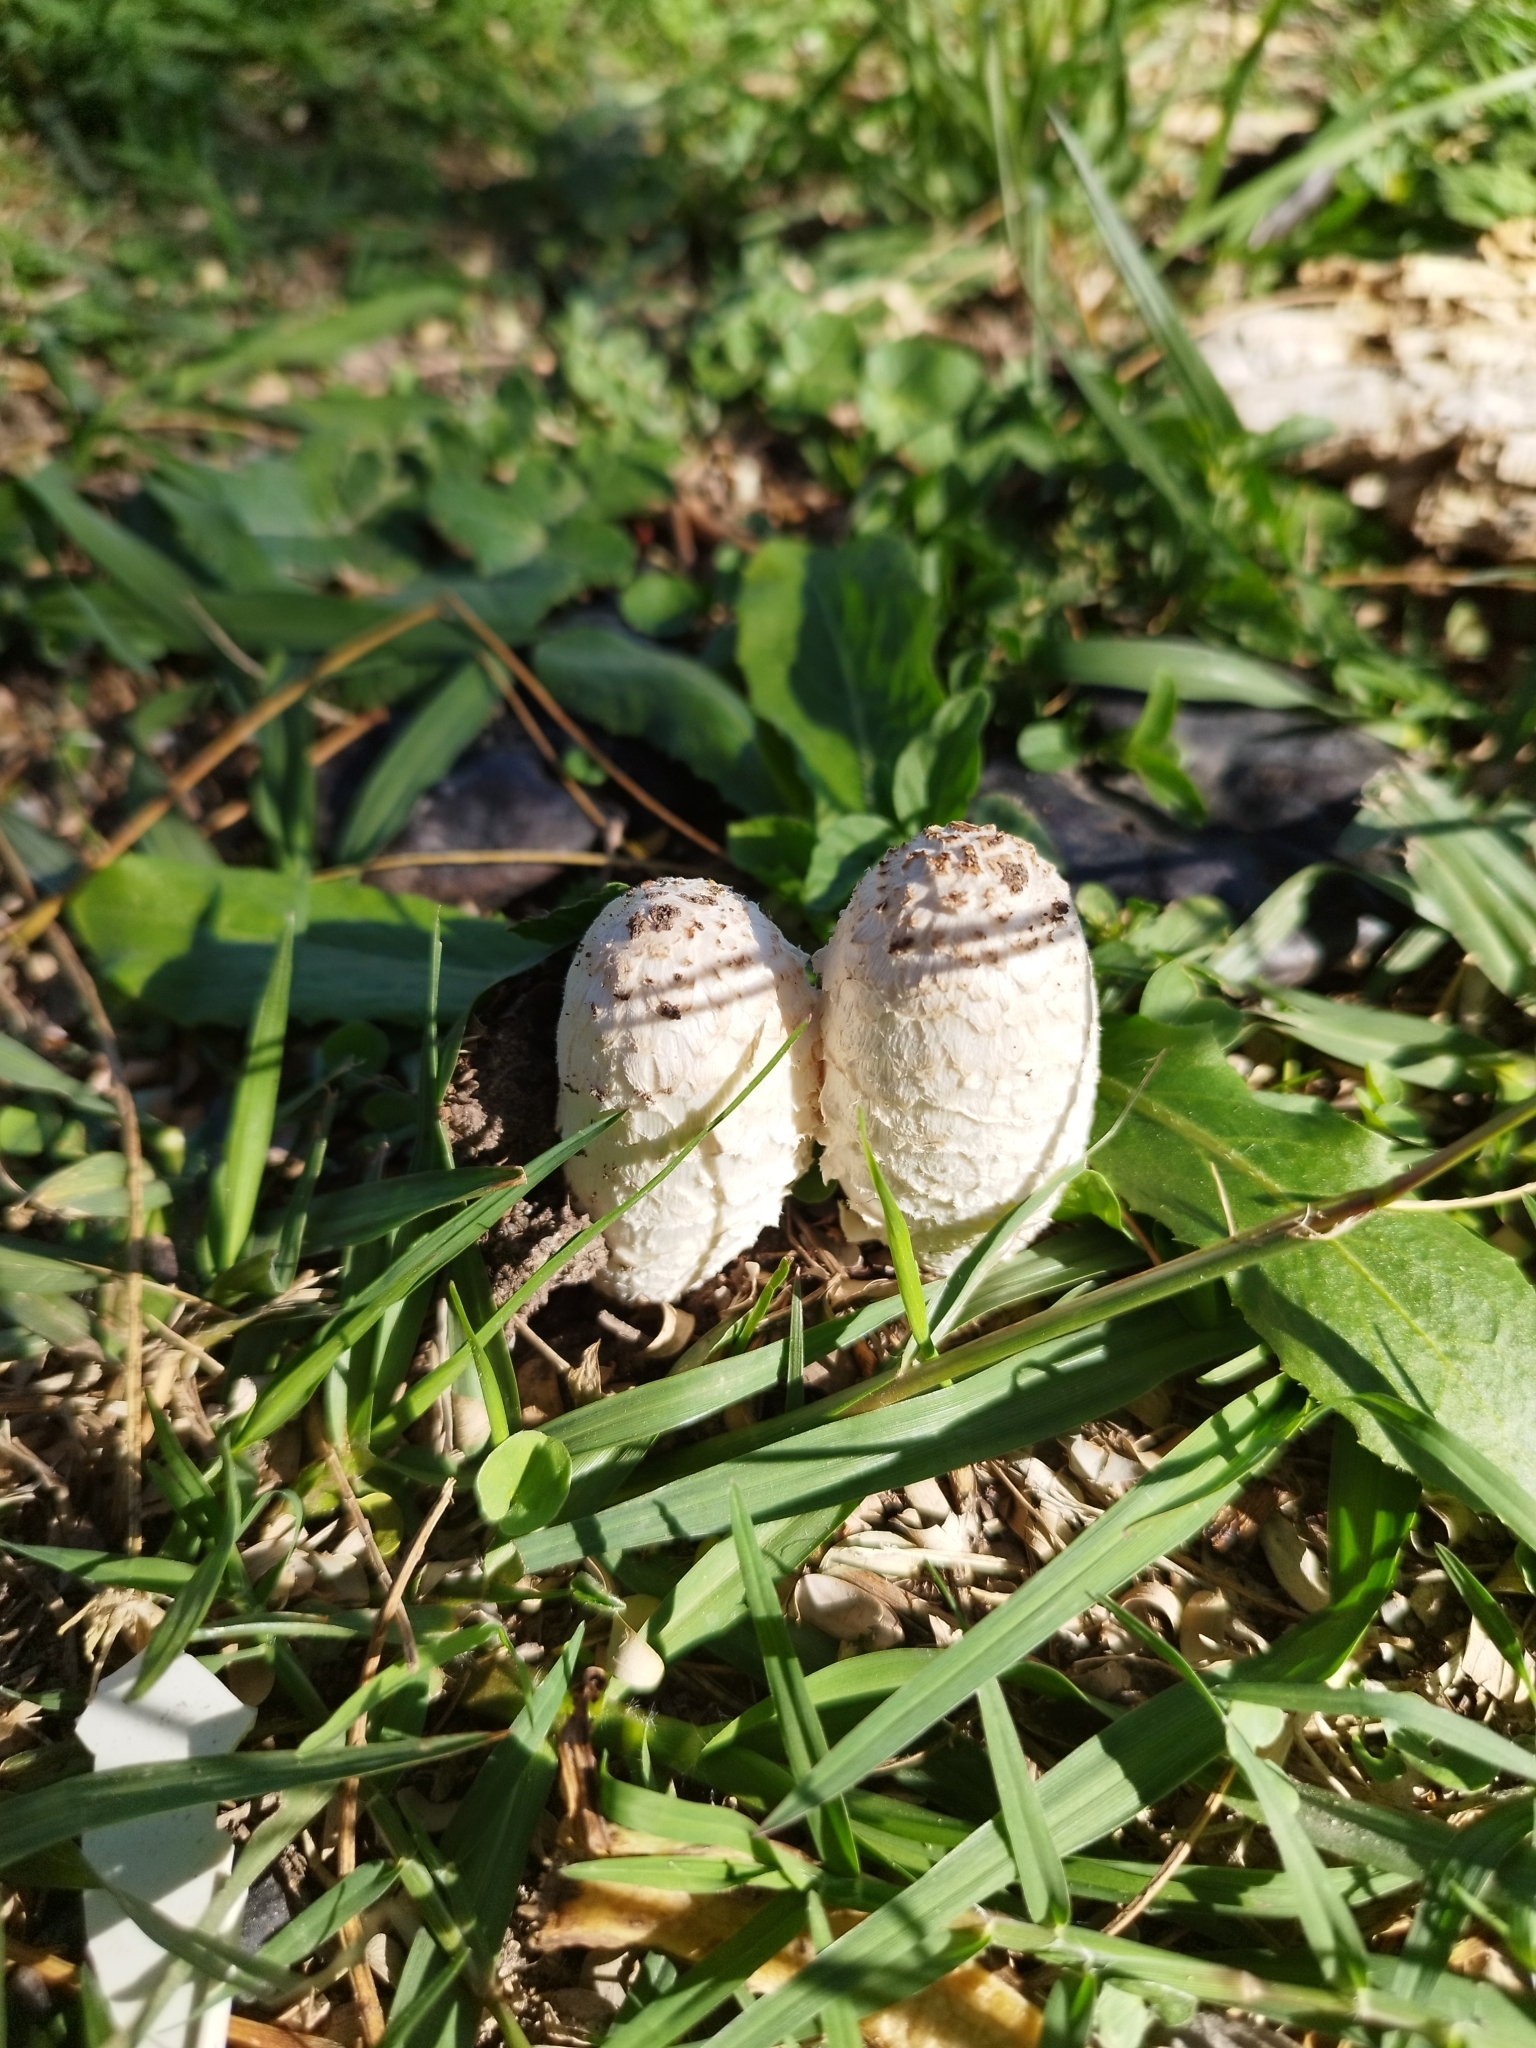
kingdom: Fungi
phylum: Basidiomycota
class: Agaricomycetes
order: Agaricales
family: Agaricaceae
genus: Coprinus
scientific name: Coprinus comatus
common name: Lawyer's wig
